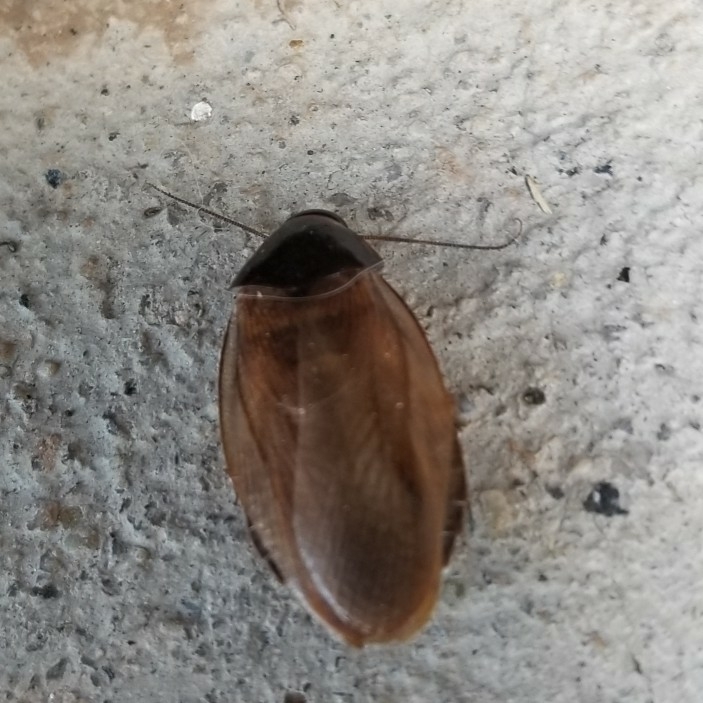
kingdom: Animalia
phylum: Arthropoda
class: Insecta
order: Blattodea
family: Blaberidae
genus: Pycnoscelus
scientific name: Pycnoscelus surinamensis
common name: Surinam cockroach
